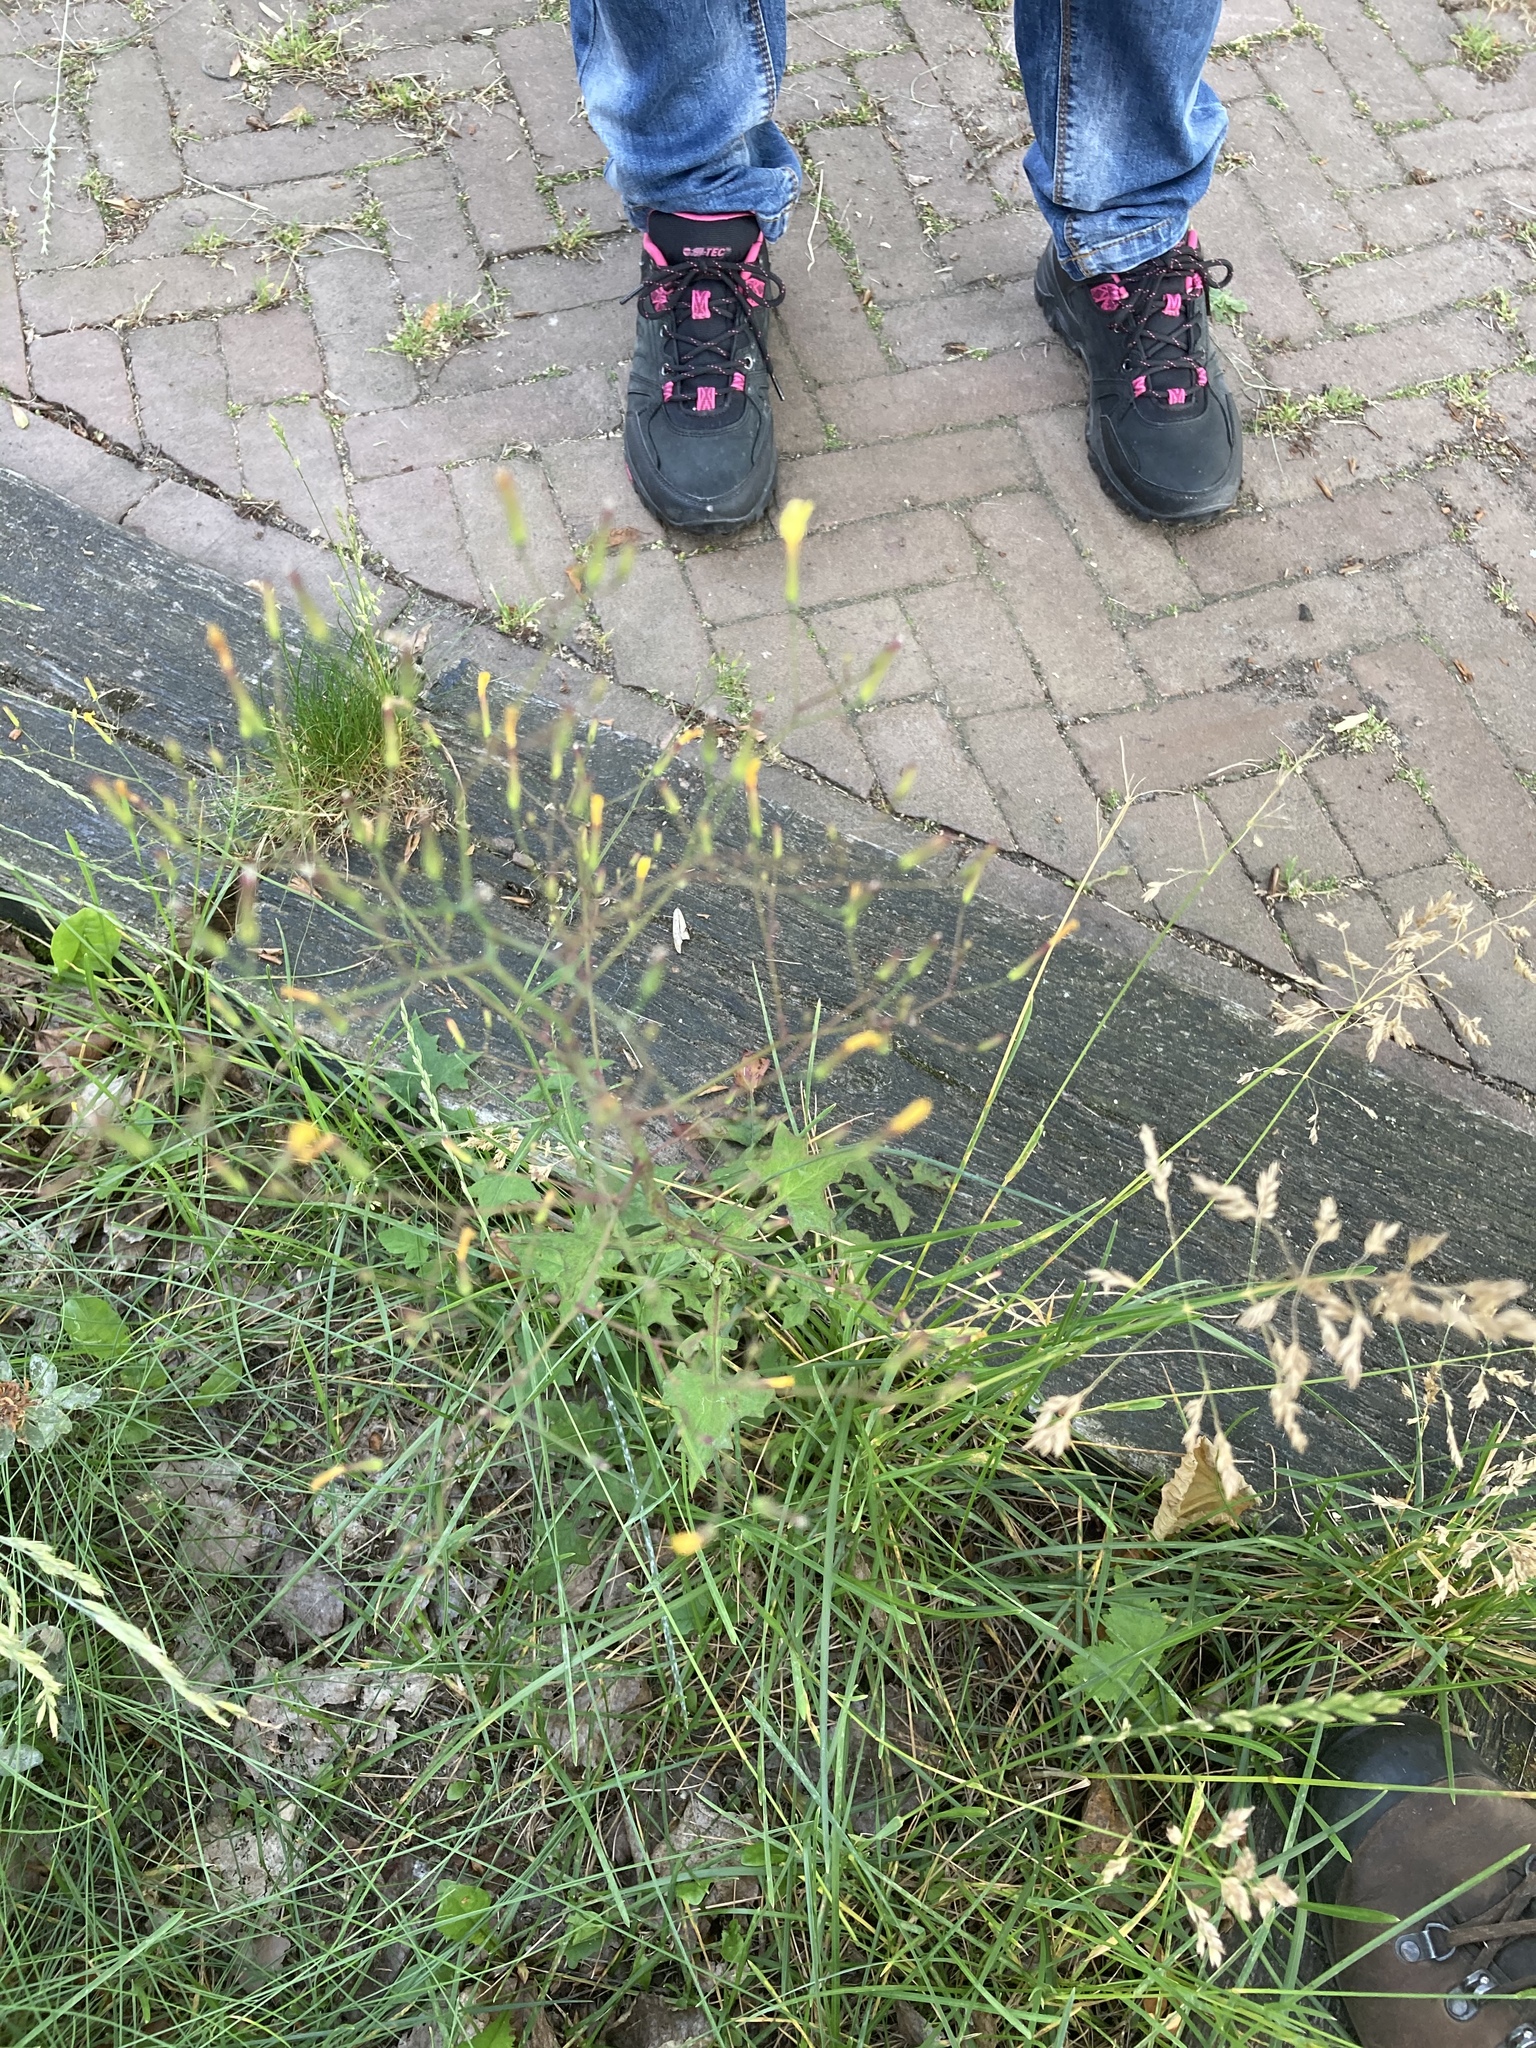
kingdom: Plantae
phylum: Tracheophyta
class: Magnoliopsida
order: Asterales
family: Asteraceae
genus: Mycelis
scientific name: Mycelis muralis
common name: Wall lettuce
